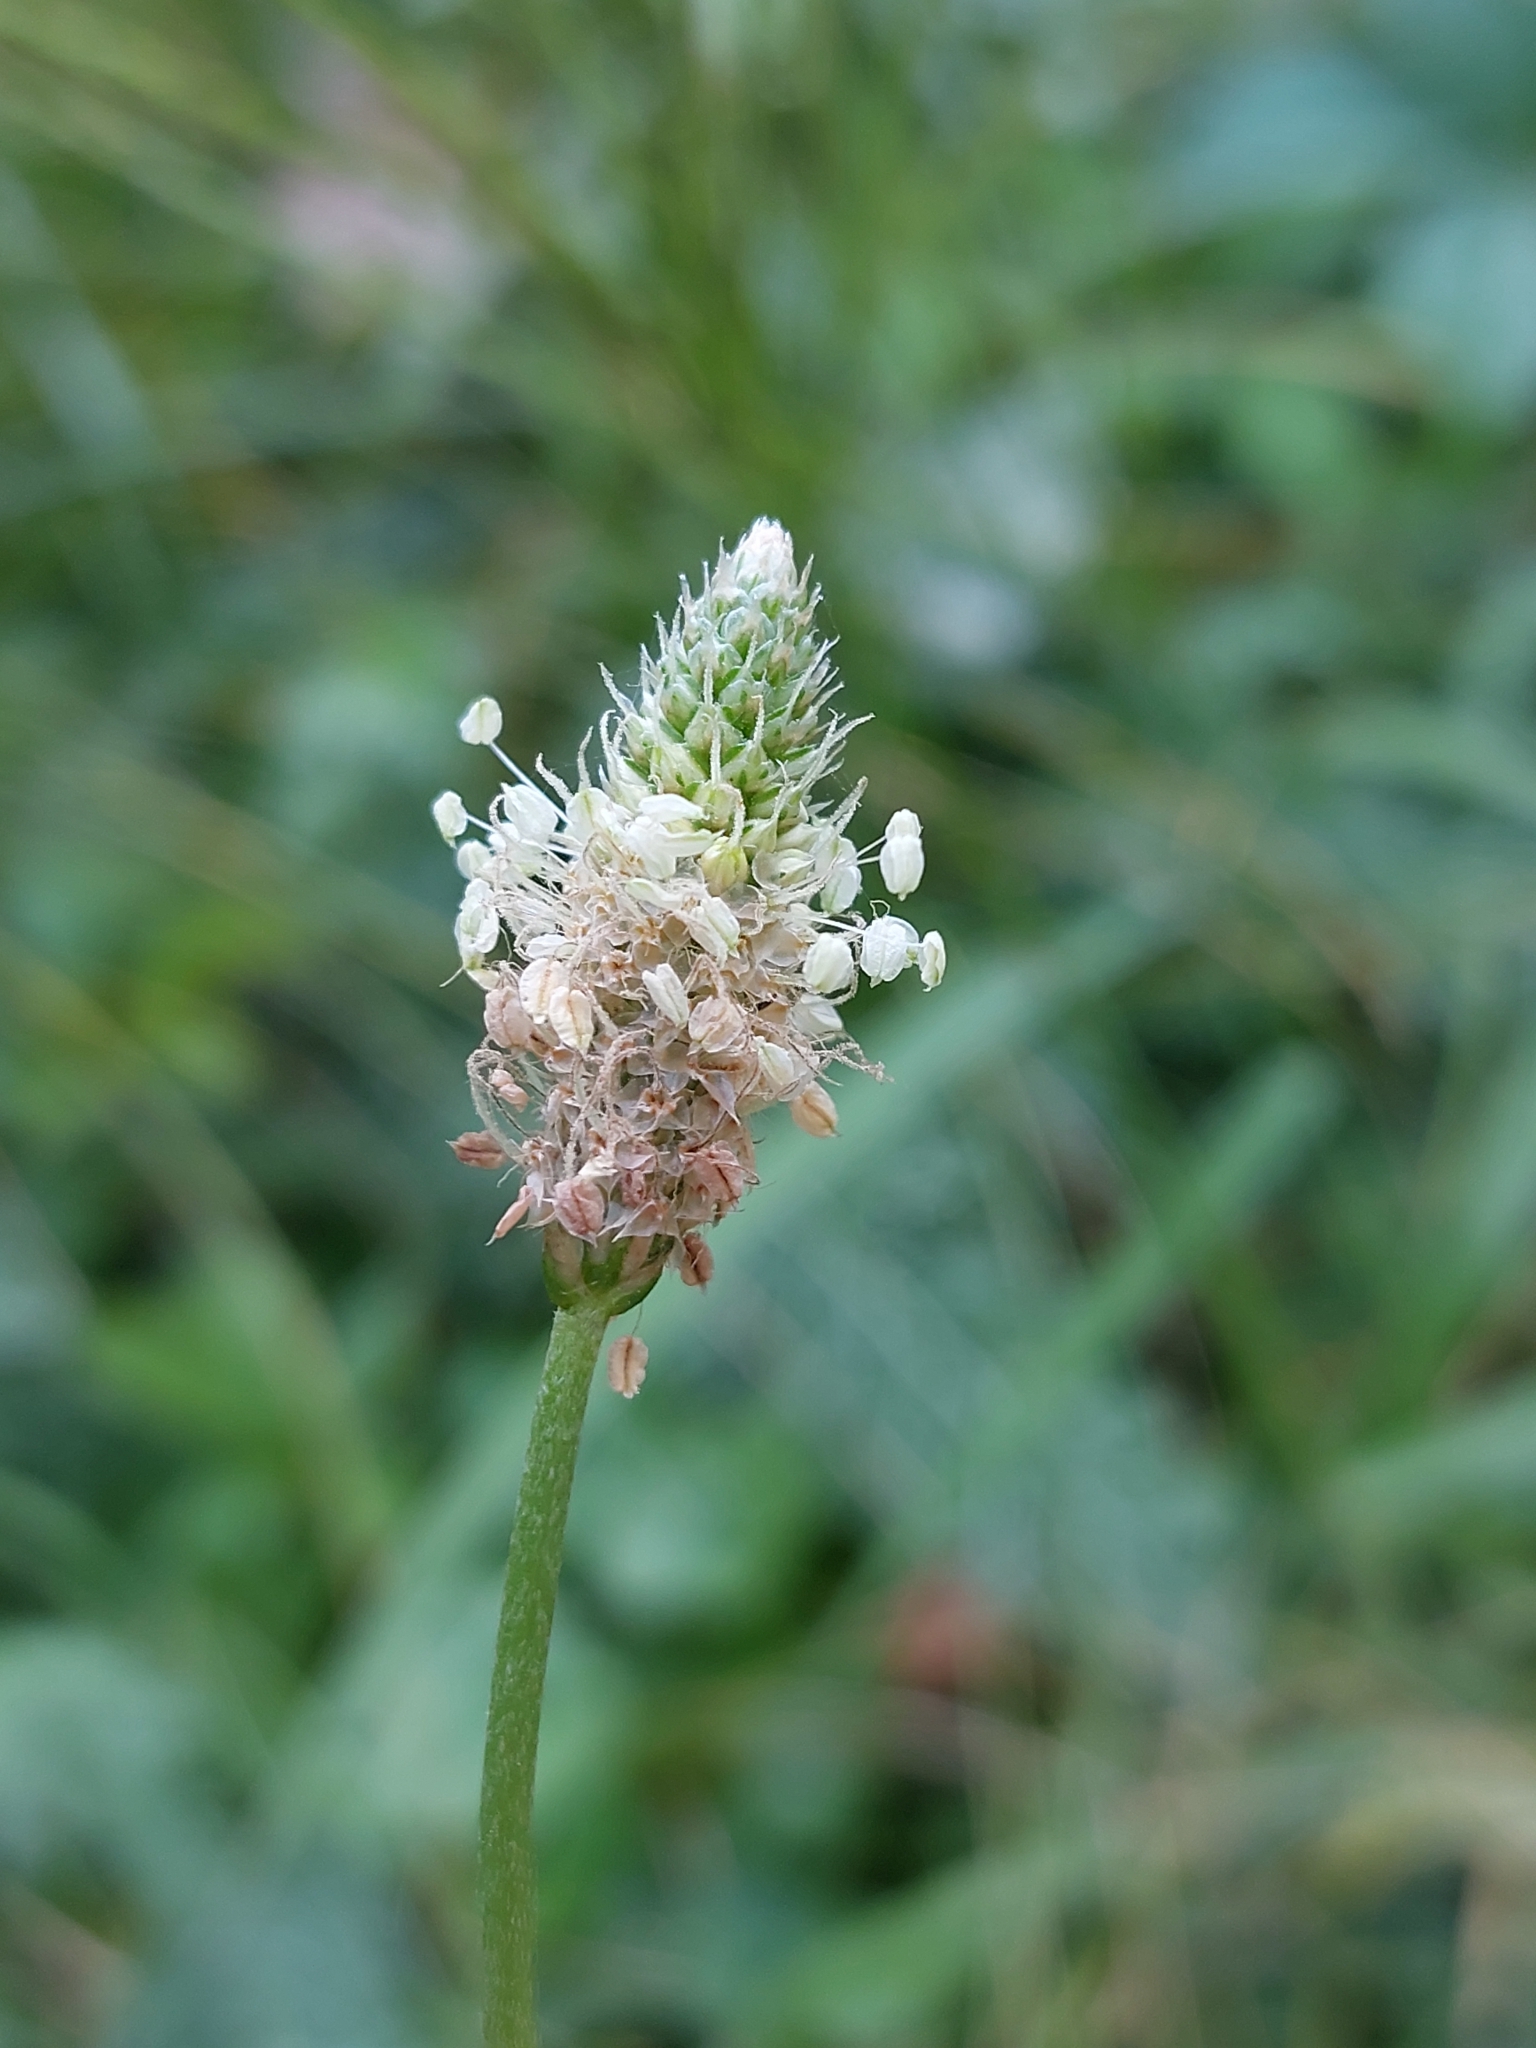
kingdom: Plantae
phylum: Tracheophyta
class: Magnoliopsida
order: Lamiales
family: Plantaginaceae
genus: Plantago
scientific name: Plantago lanceolata
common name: Ribwort plantain
